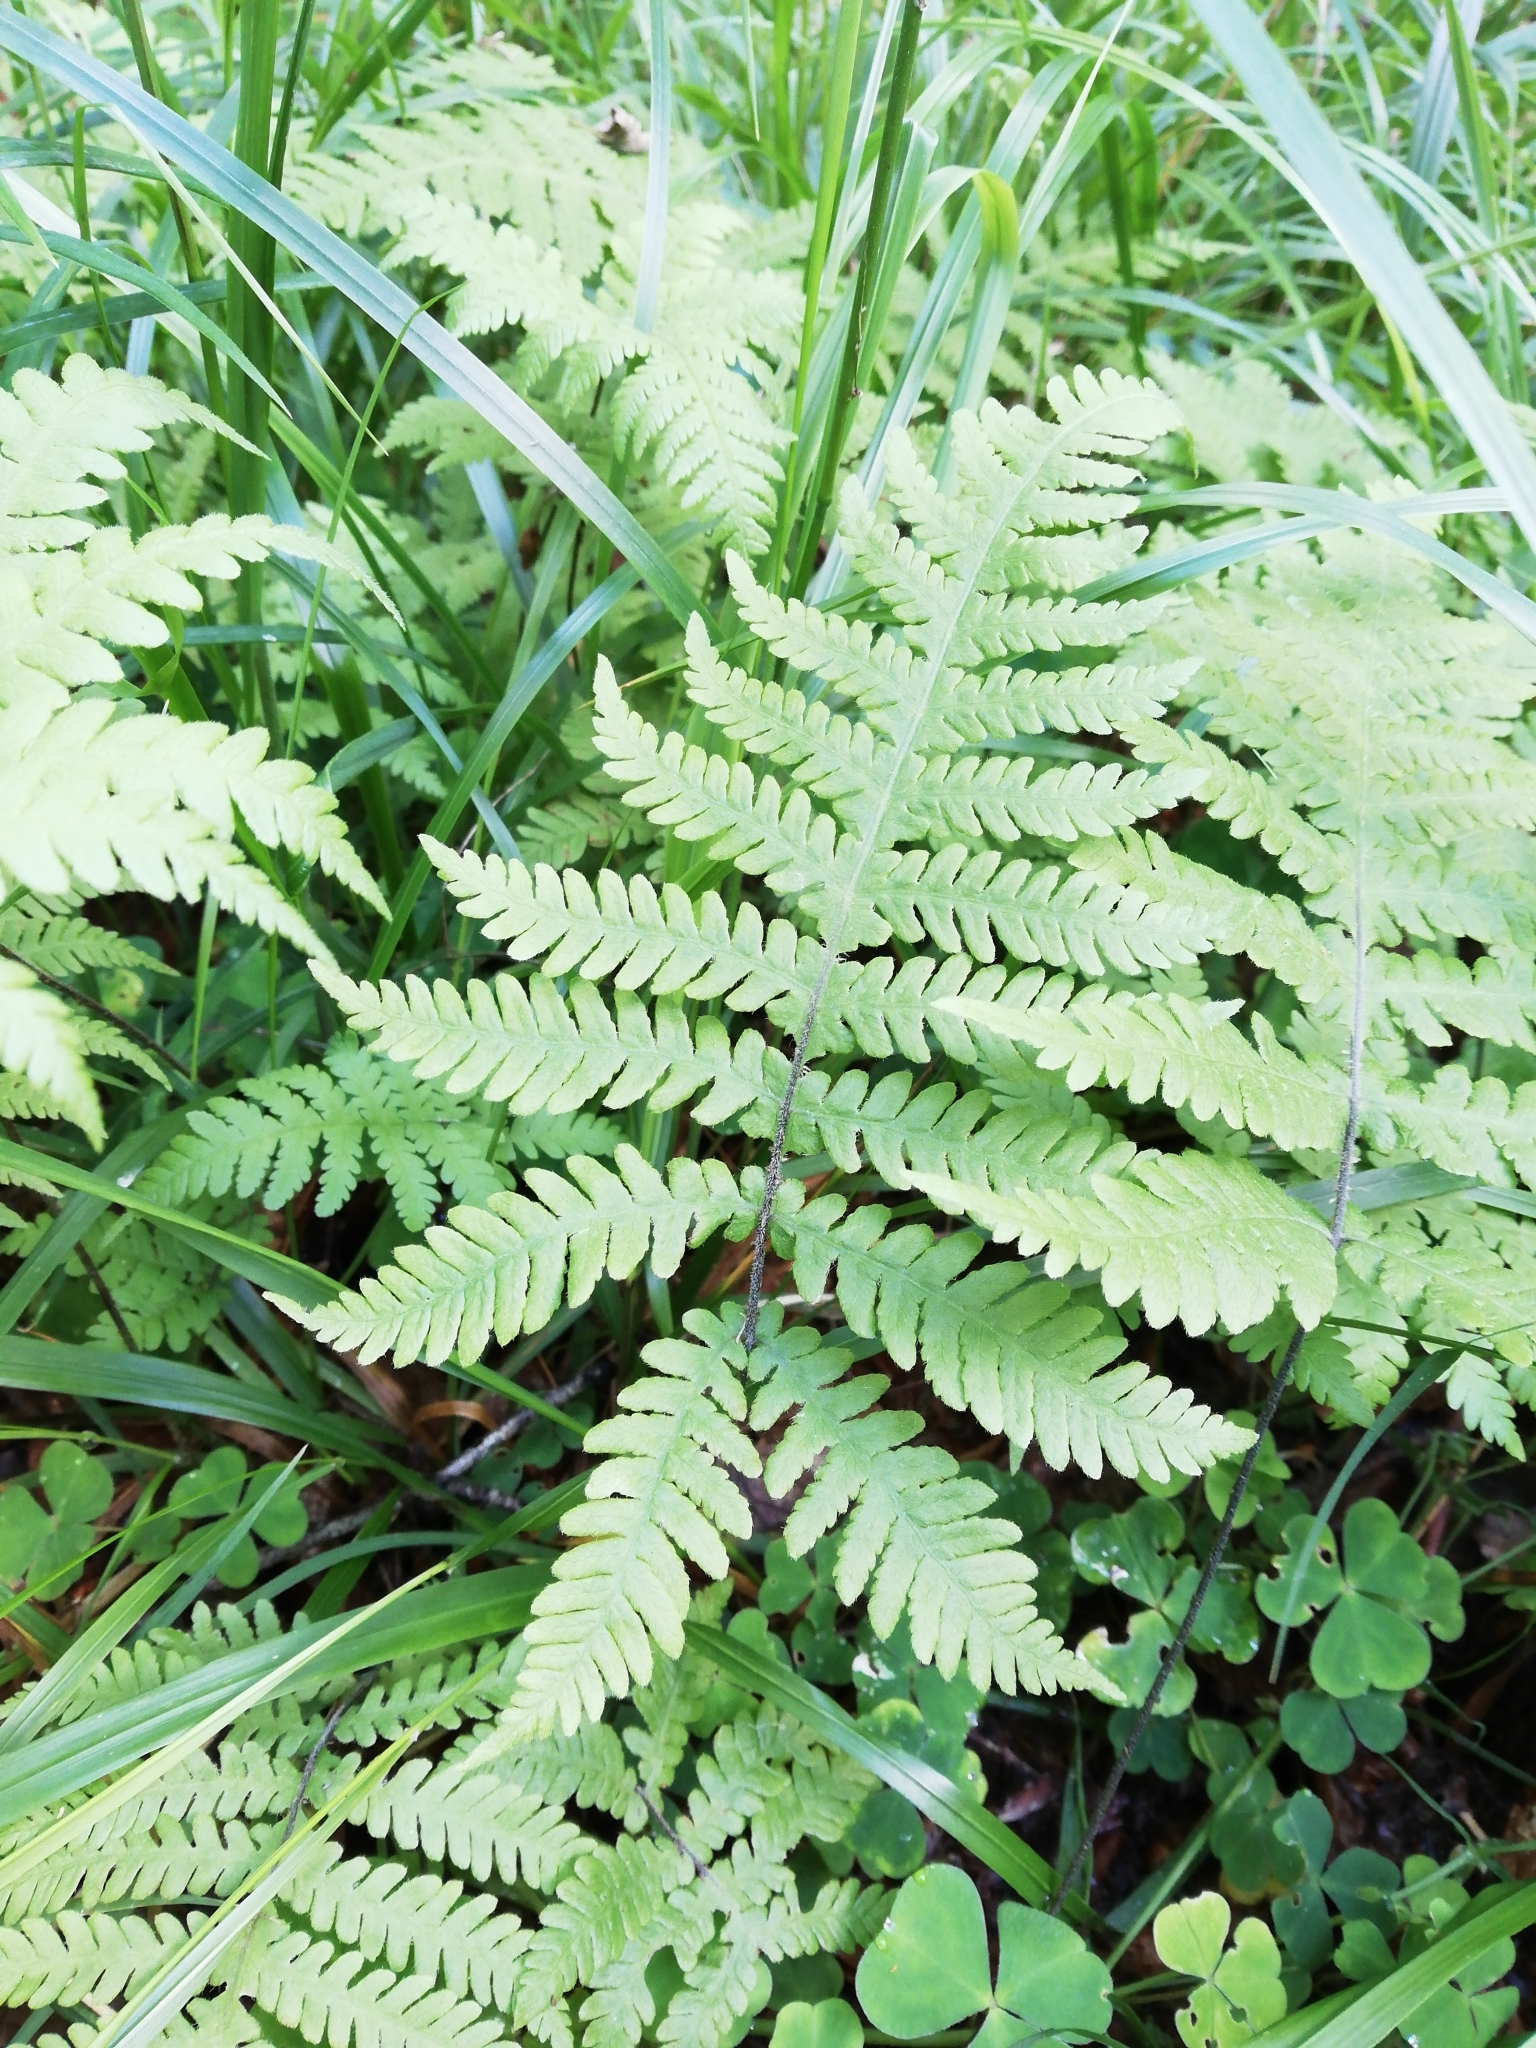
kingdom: Plantae
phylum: Tracheophyta
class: Polypodiopsida
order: Polypodiales
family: Thelypteridaceae
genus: Phegopteris
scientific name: Phegopteris connectilis
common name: Beech fern
